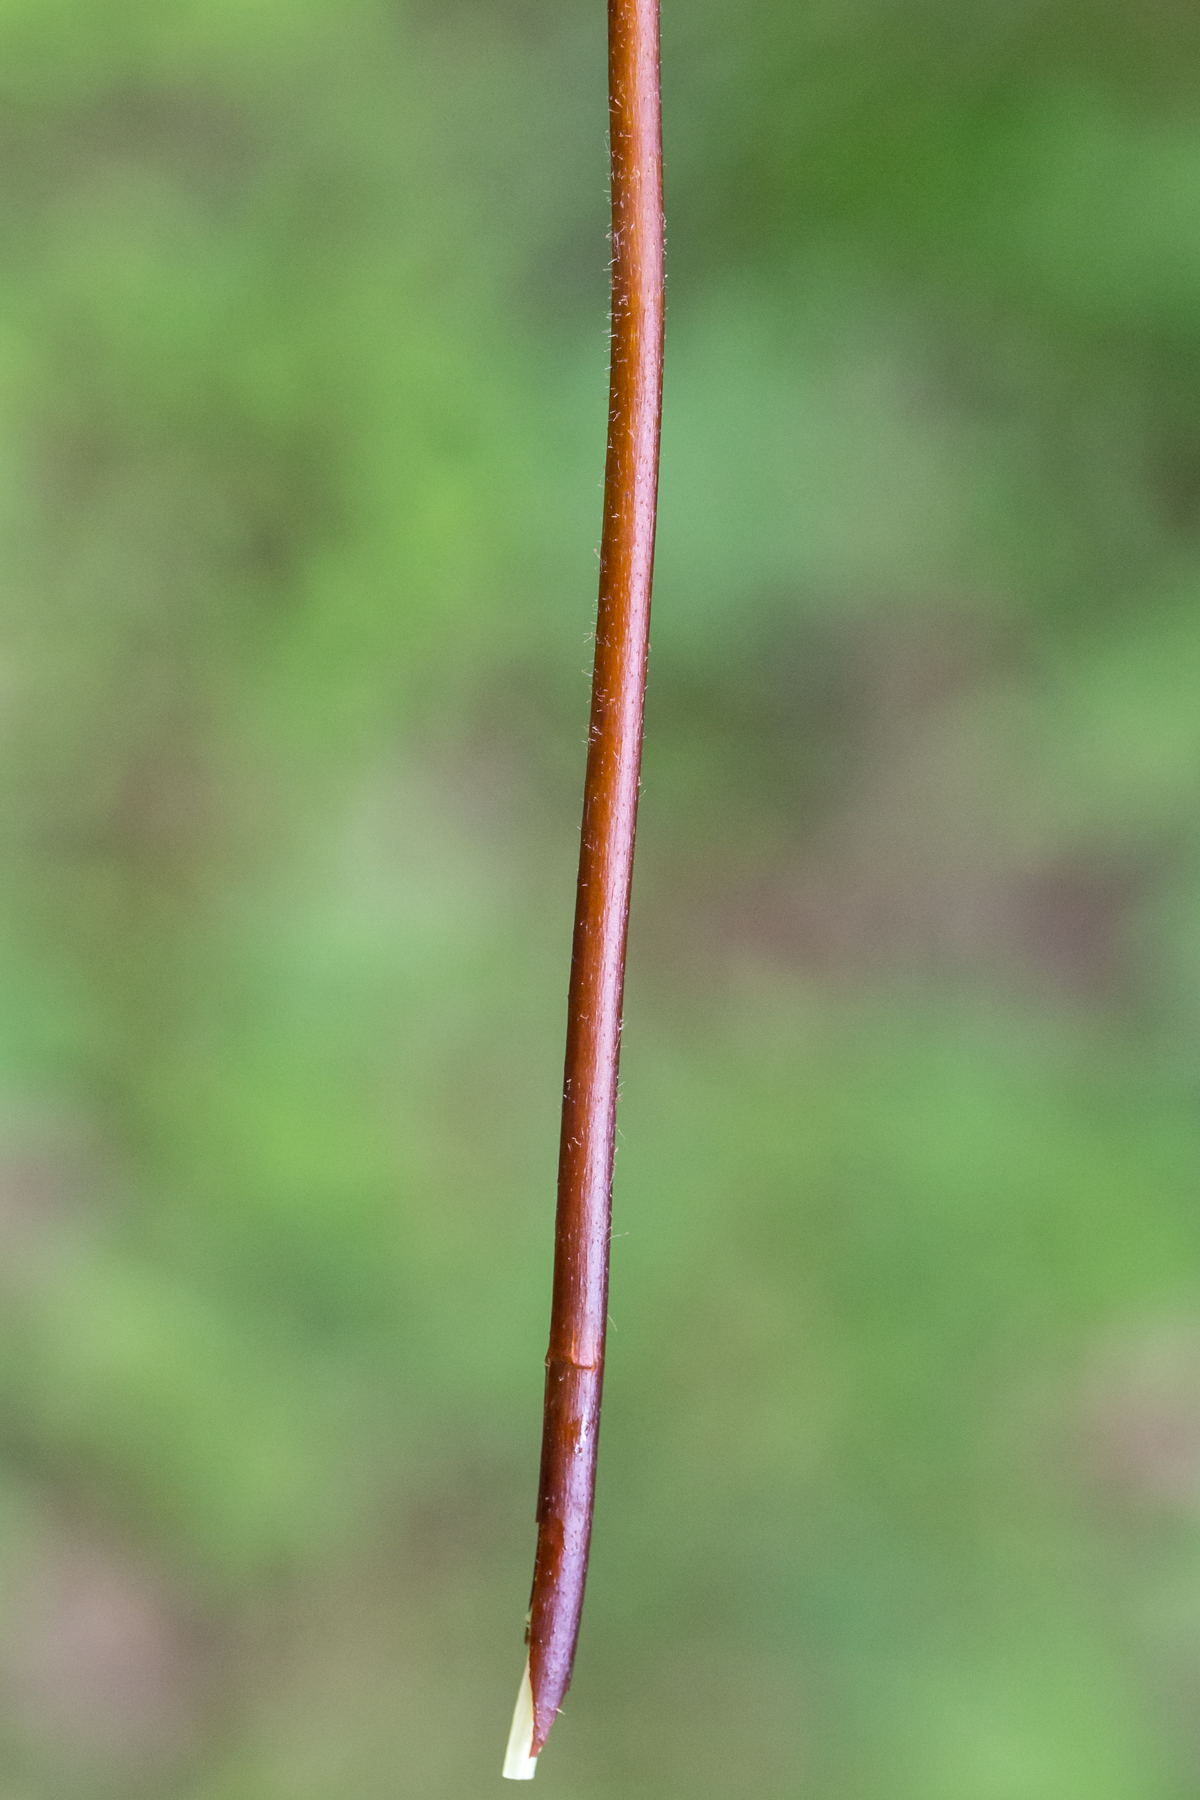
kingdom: Plantae
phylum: Tracheophyta
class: Polypodiopsida
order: Polypodiales
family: Dennstaedtiaceae
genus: Sitobolium
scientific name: Sitobolium punctilobum
